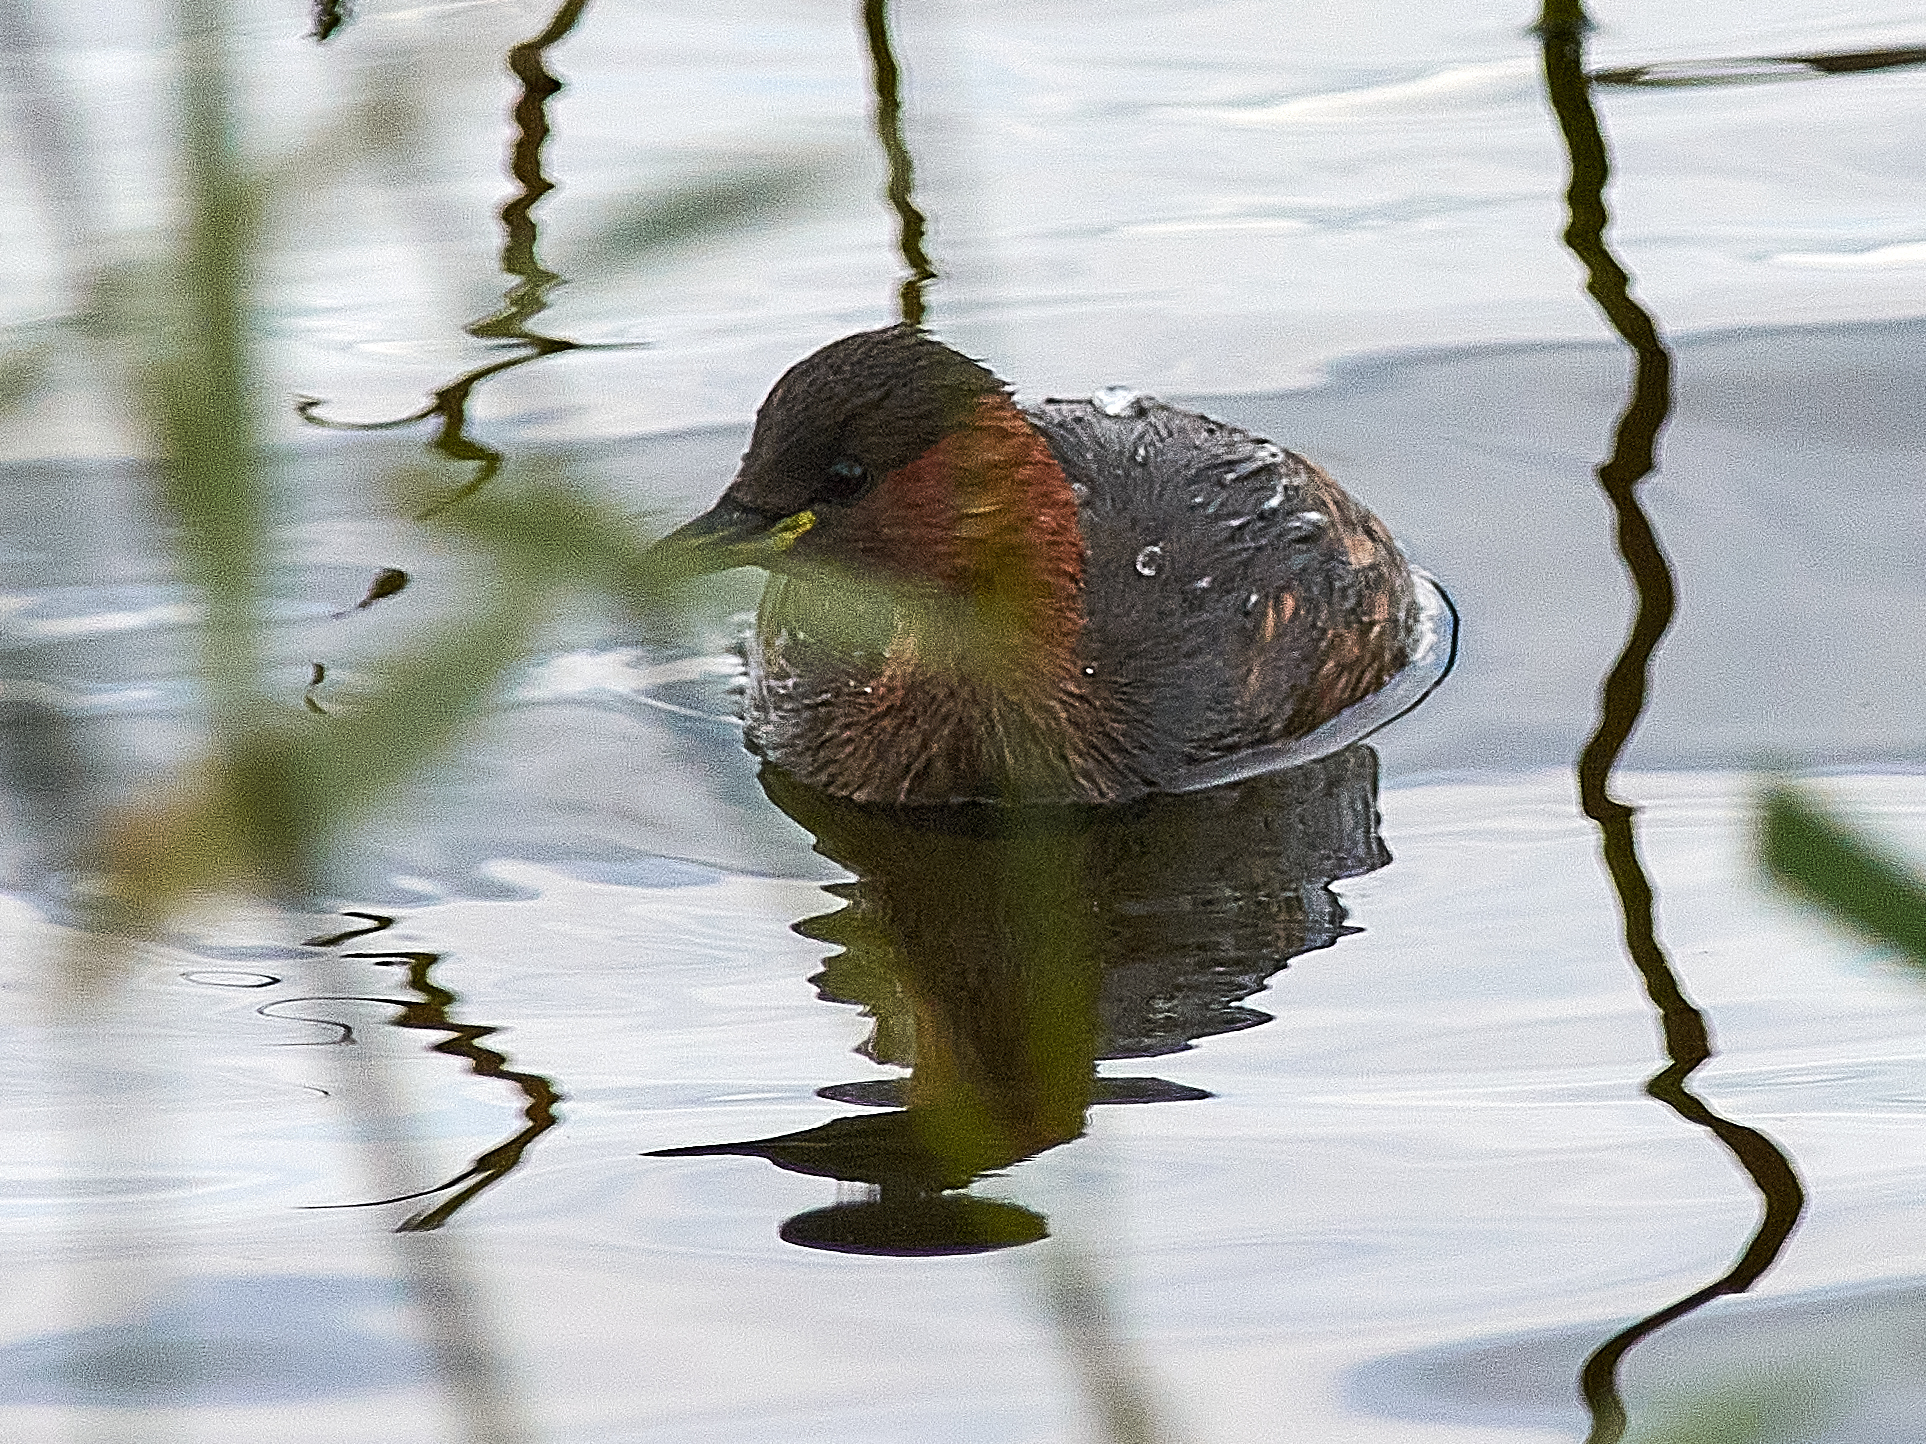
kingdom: Animalia
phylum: Chordata
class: Aves
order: Podicipediformes
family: Podicipedidae
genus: Tachybaptus
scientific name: Tachybaptus ruficollis
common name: Little grebe
